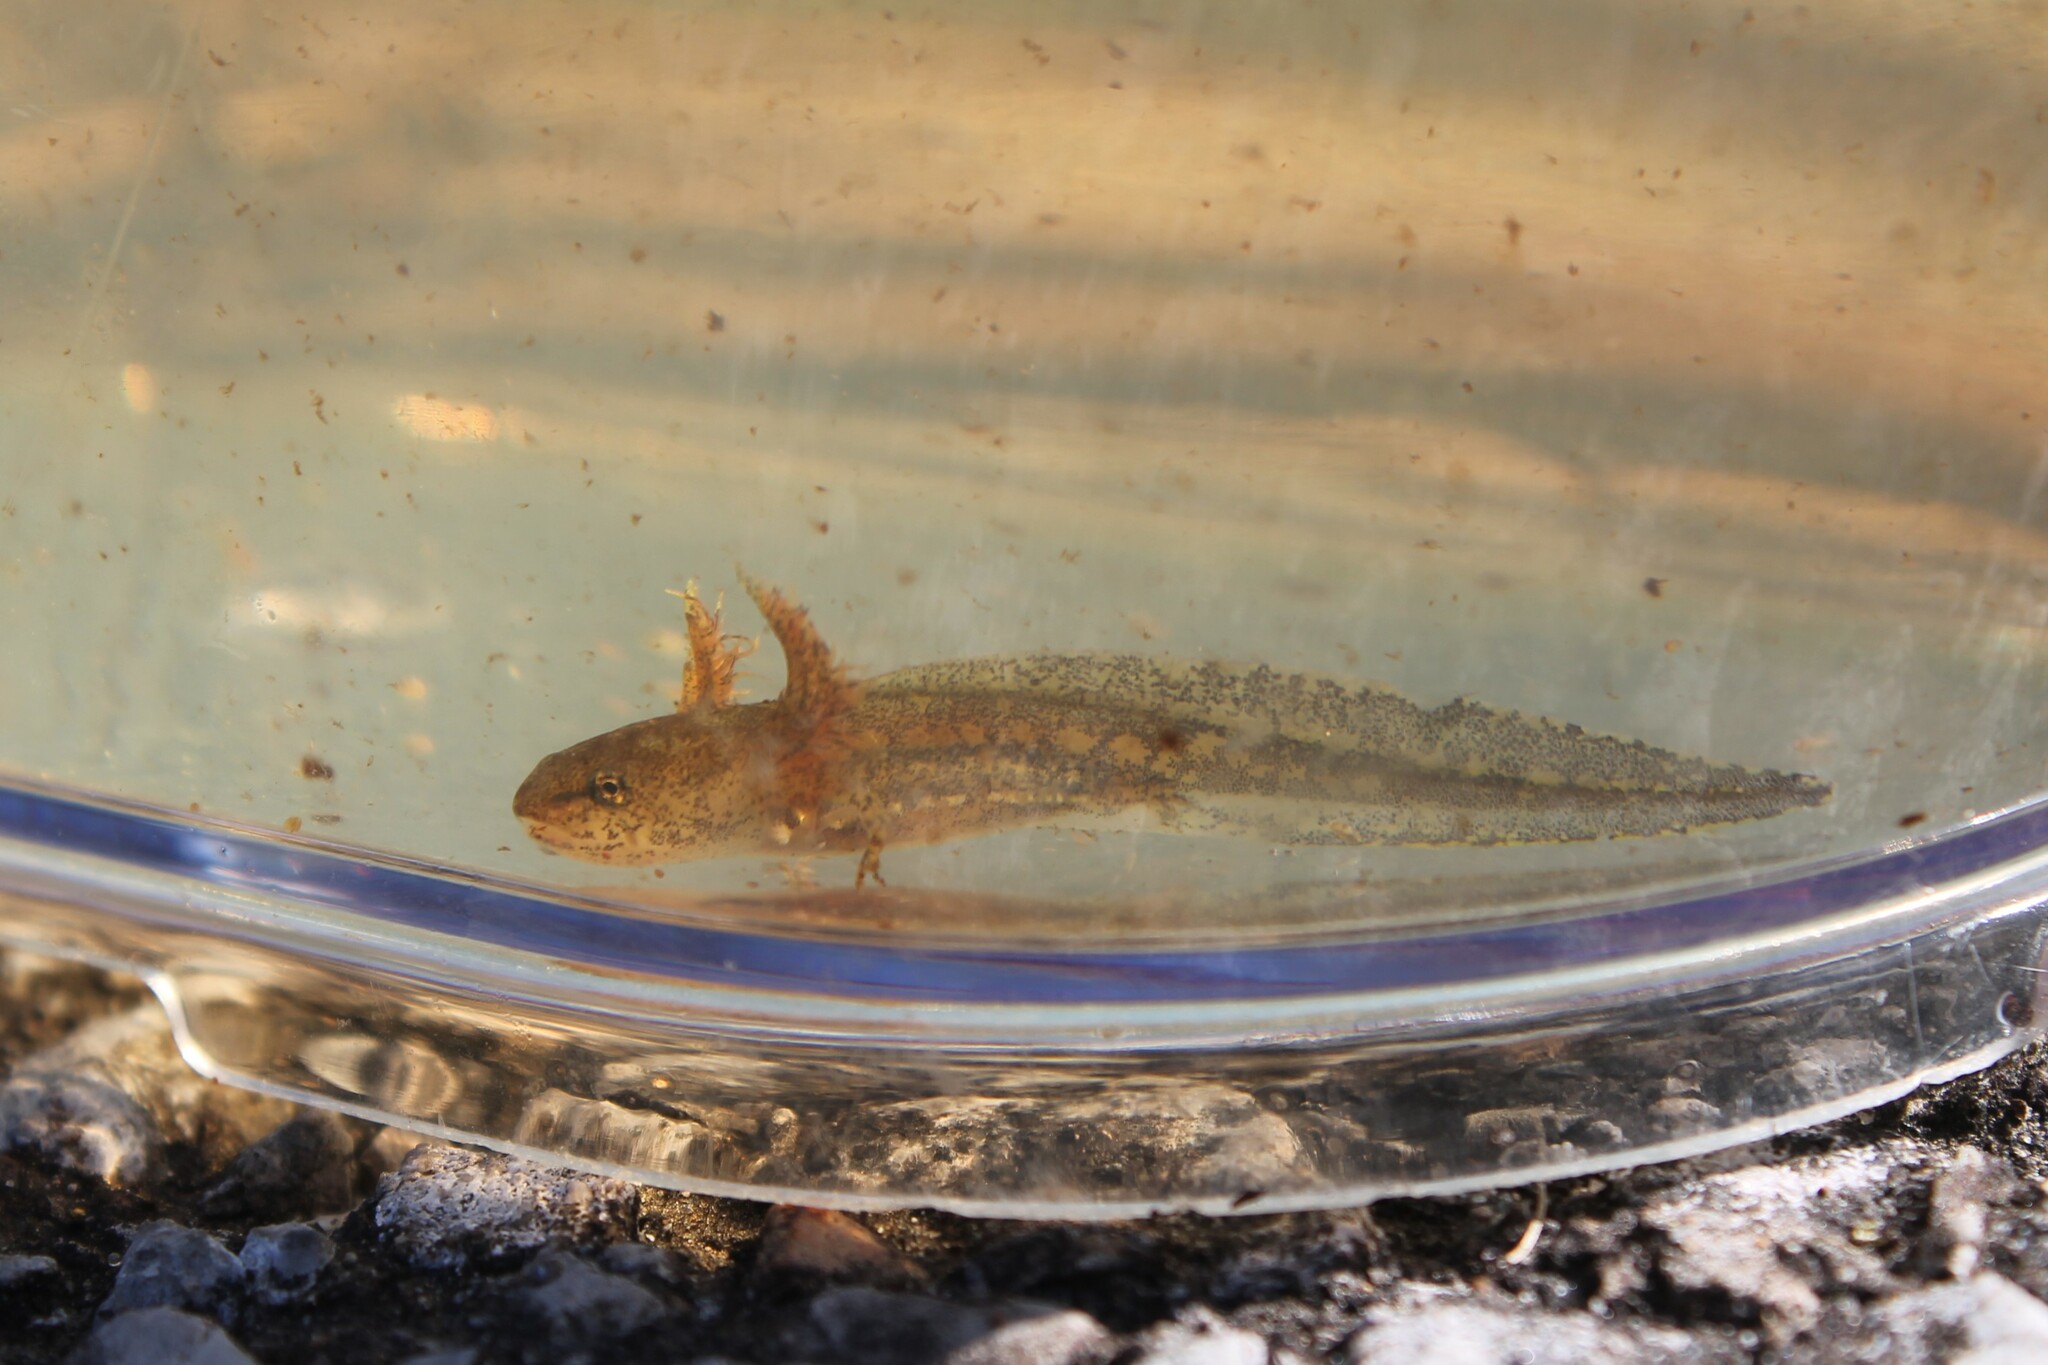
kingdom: Animalia
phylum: Chordata
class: Amphibia
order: Caudata
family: Ambystomatidae
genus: Ambystoma
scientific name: Ambystoma talpoideum
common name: Mole salamander
